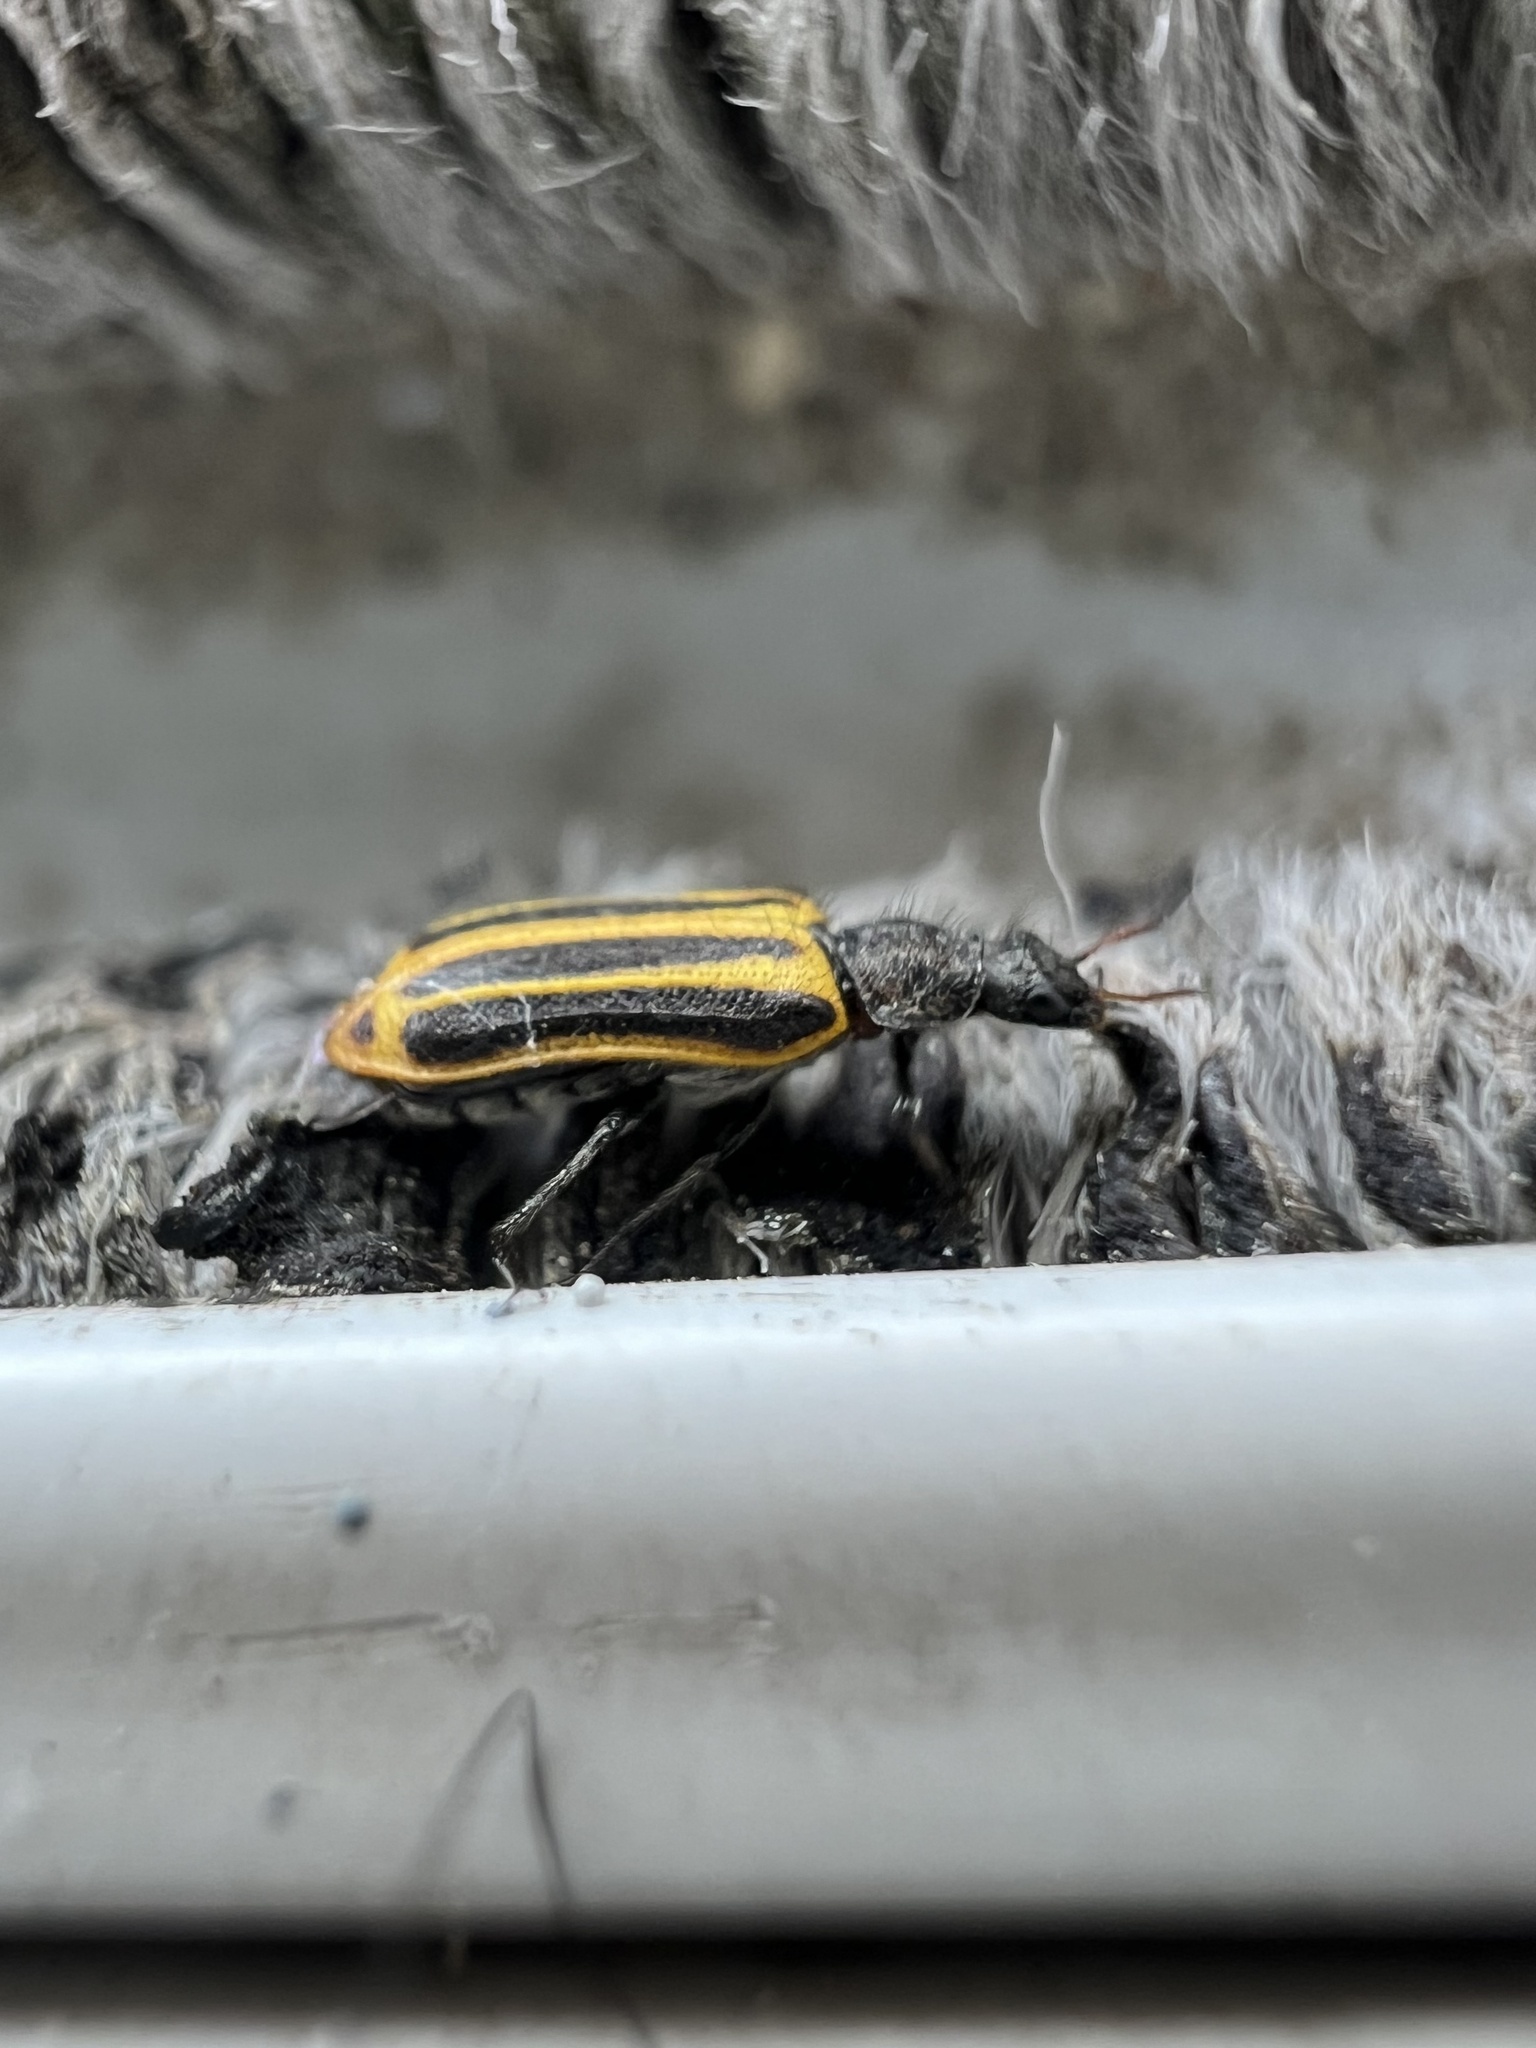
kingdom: Animalia
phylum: Arthropoda
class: Insecta
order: Coleoptera
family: Melyridae
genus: Astylus
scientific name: Astylus
